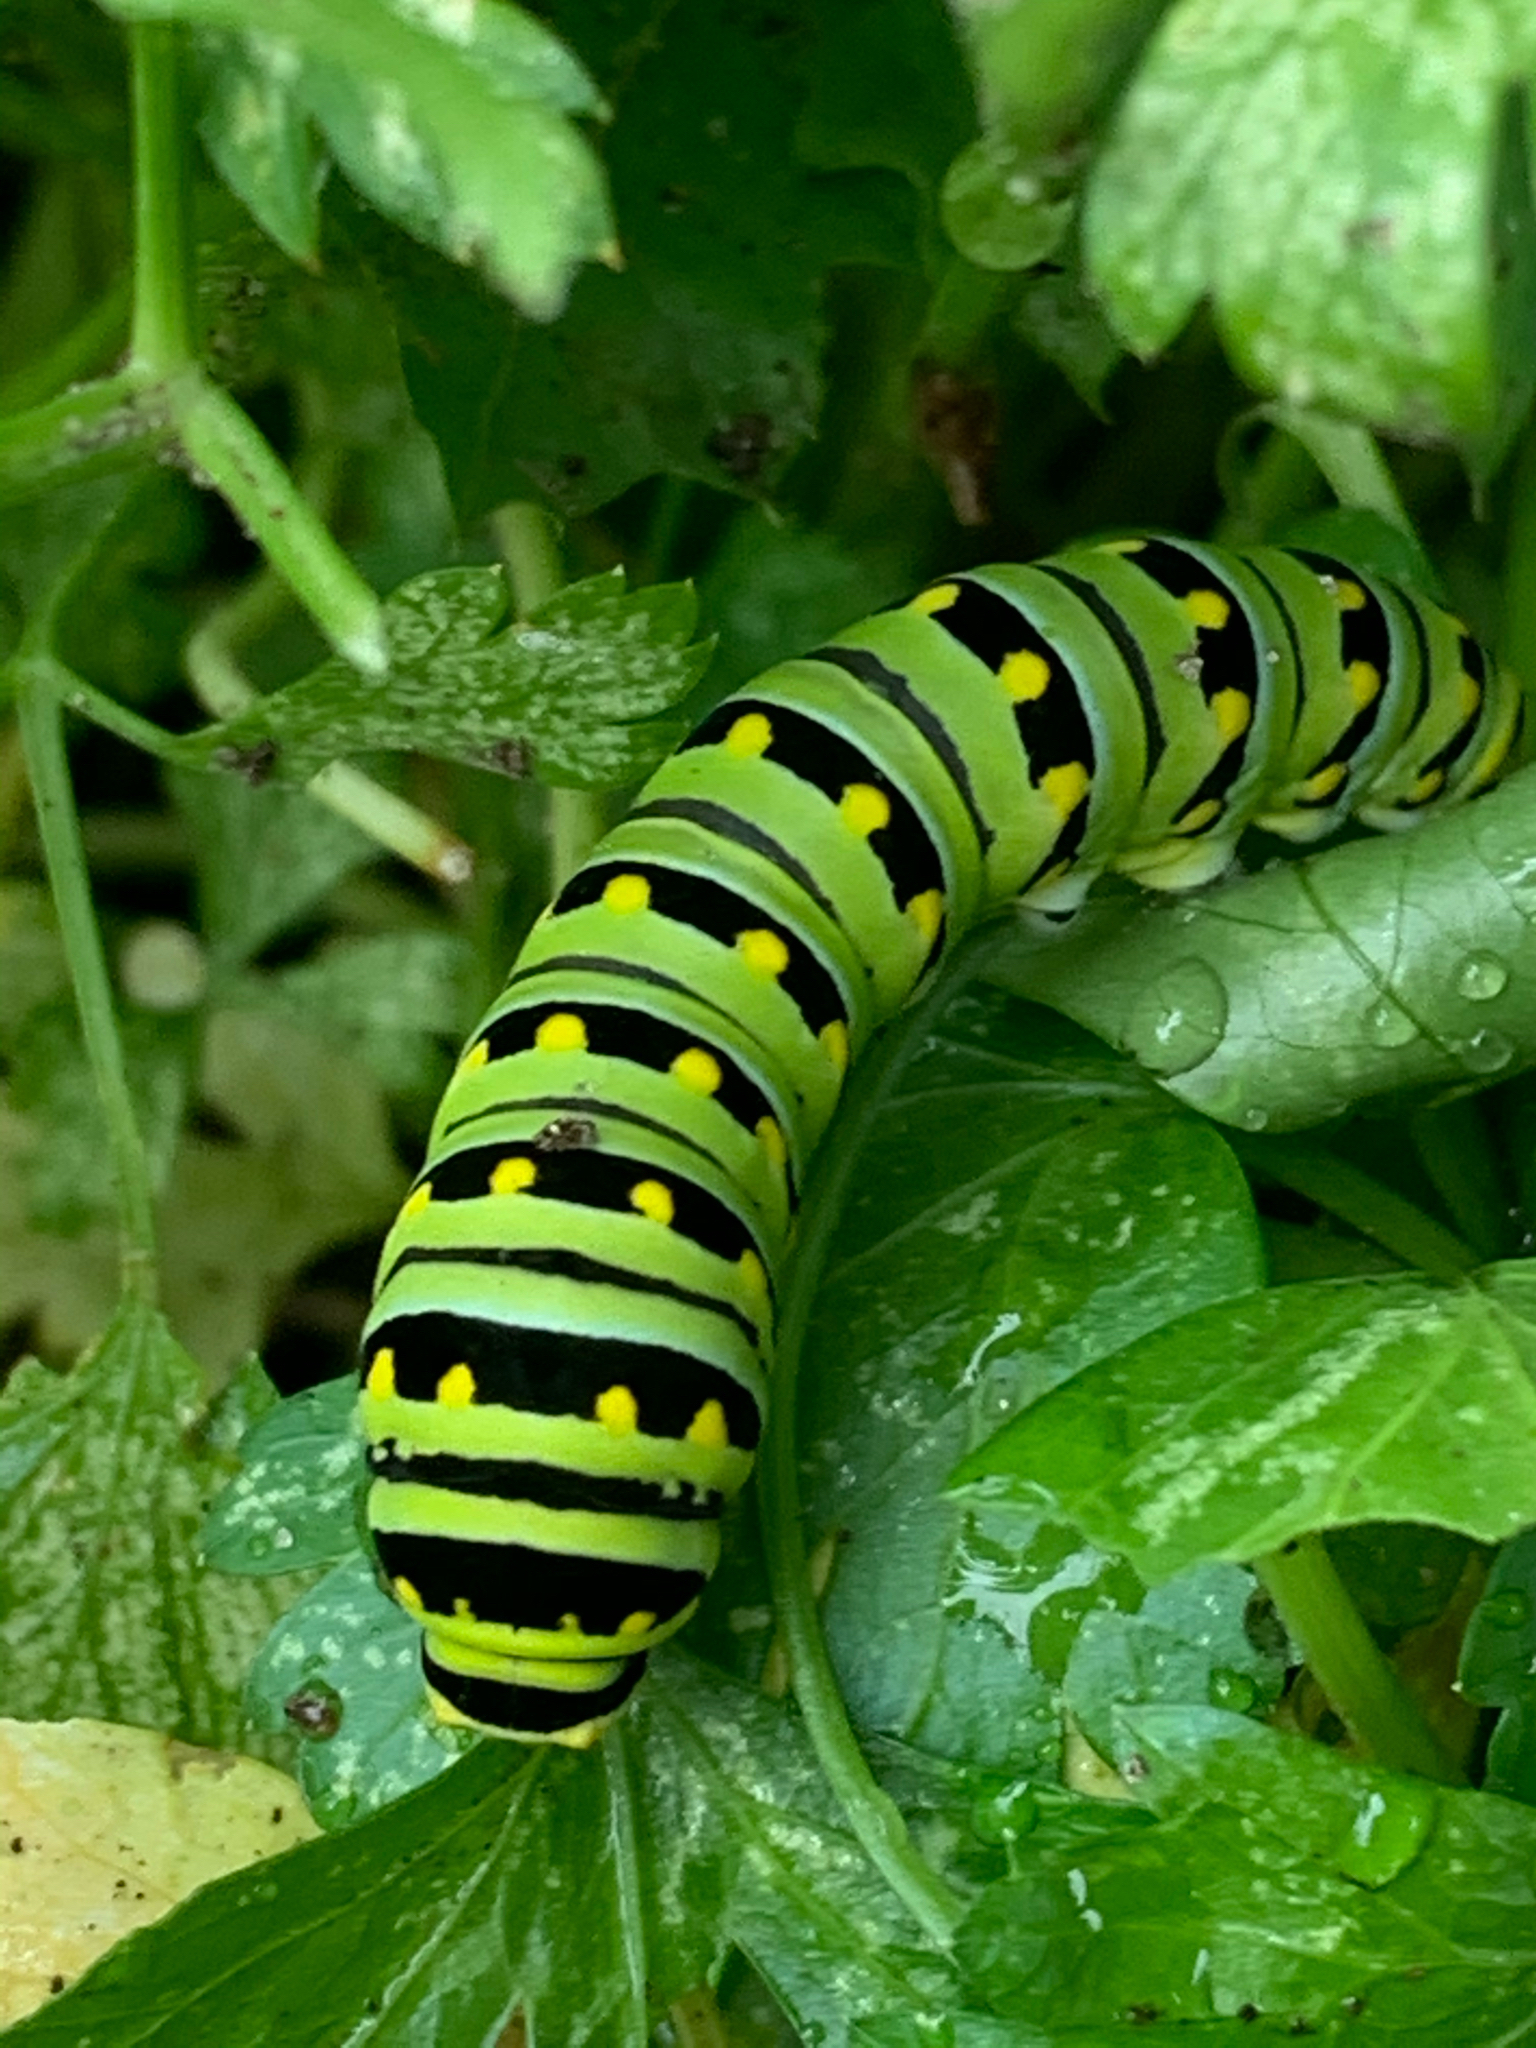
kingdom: Animalia
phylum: Arthropoda
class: Insecta
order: Lepidoptera
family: Papilionidae
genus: Papilio
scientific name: Papilio polyxenes
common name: Black swallowtail
